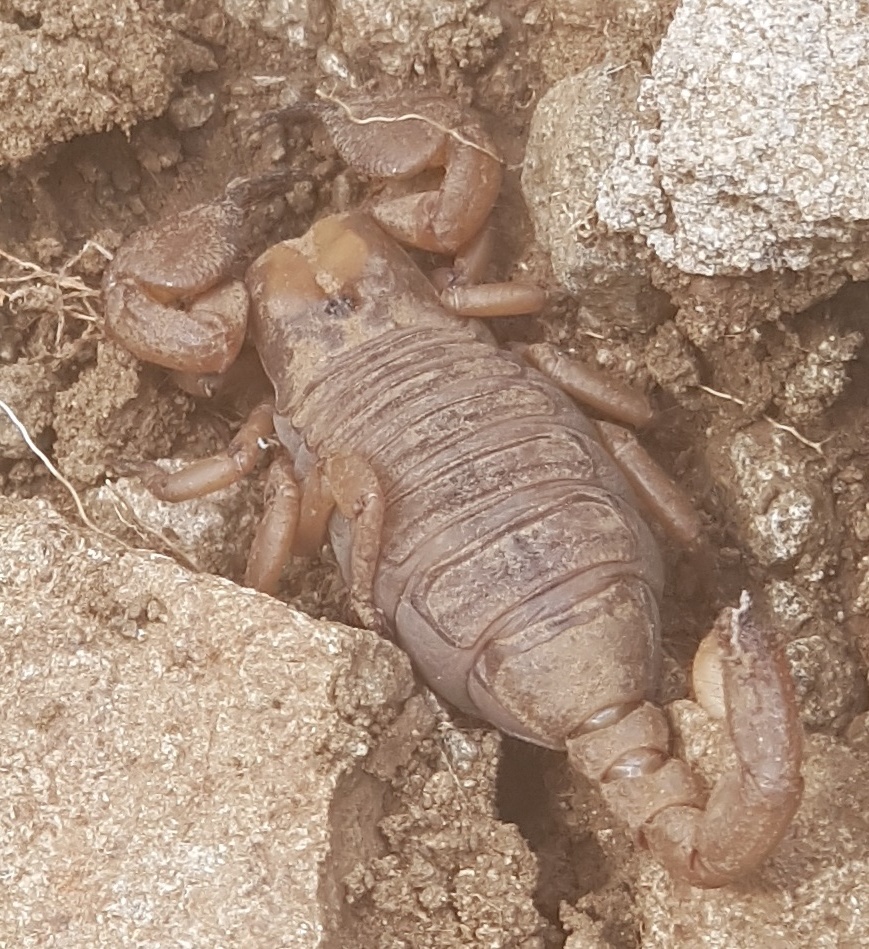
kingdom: Animalia
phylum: Arthropoda
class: Arachnida
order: Scorpiones
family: Scorpionidae
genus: Opistophthalmus
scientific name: Opistophthalmus praedo
